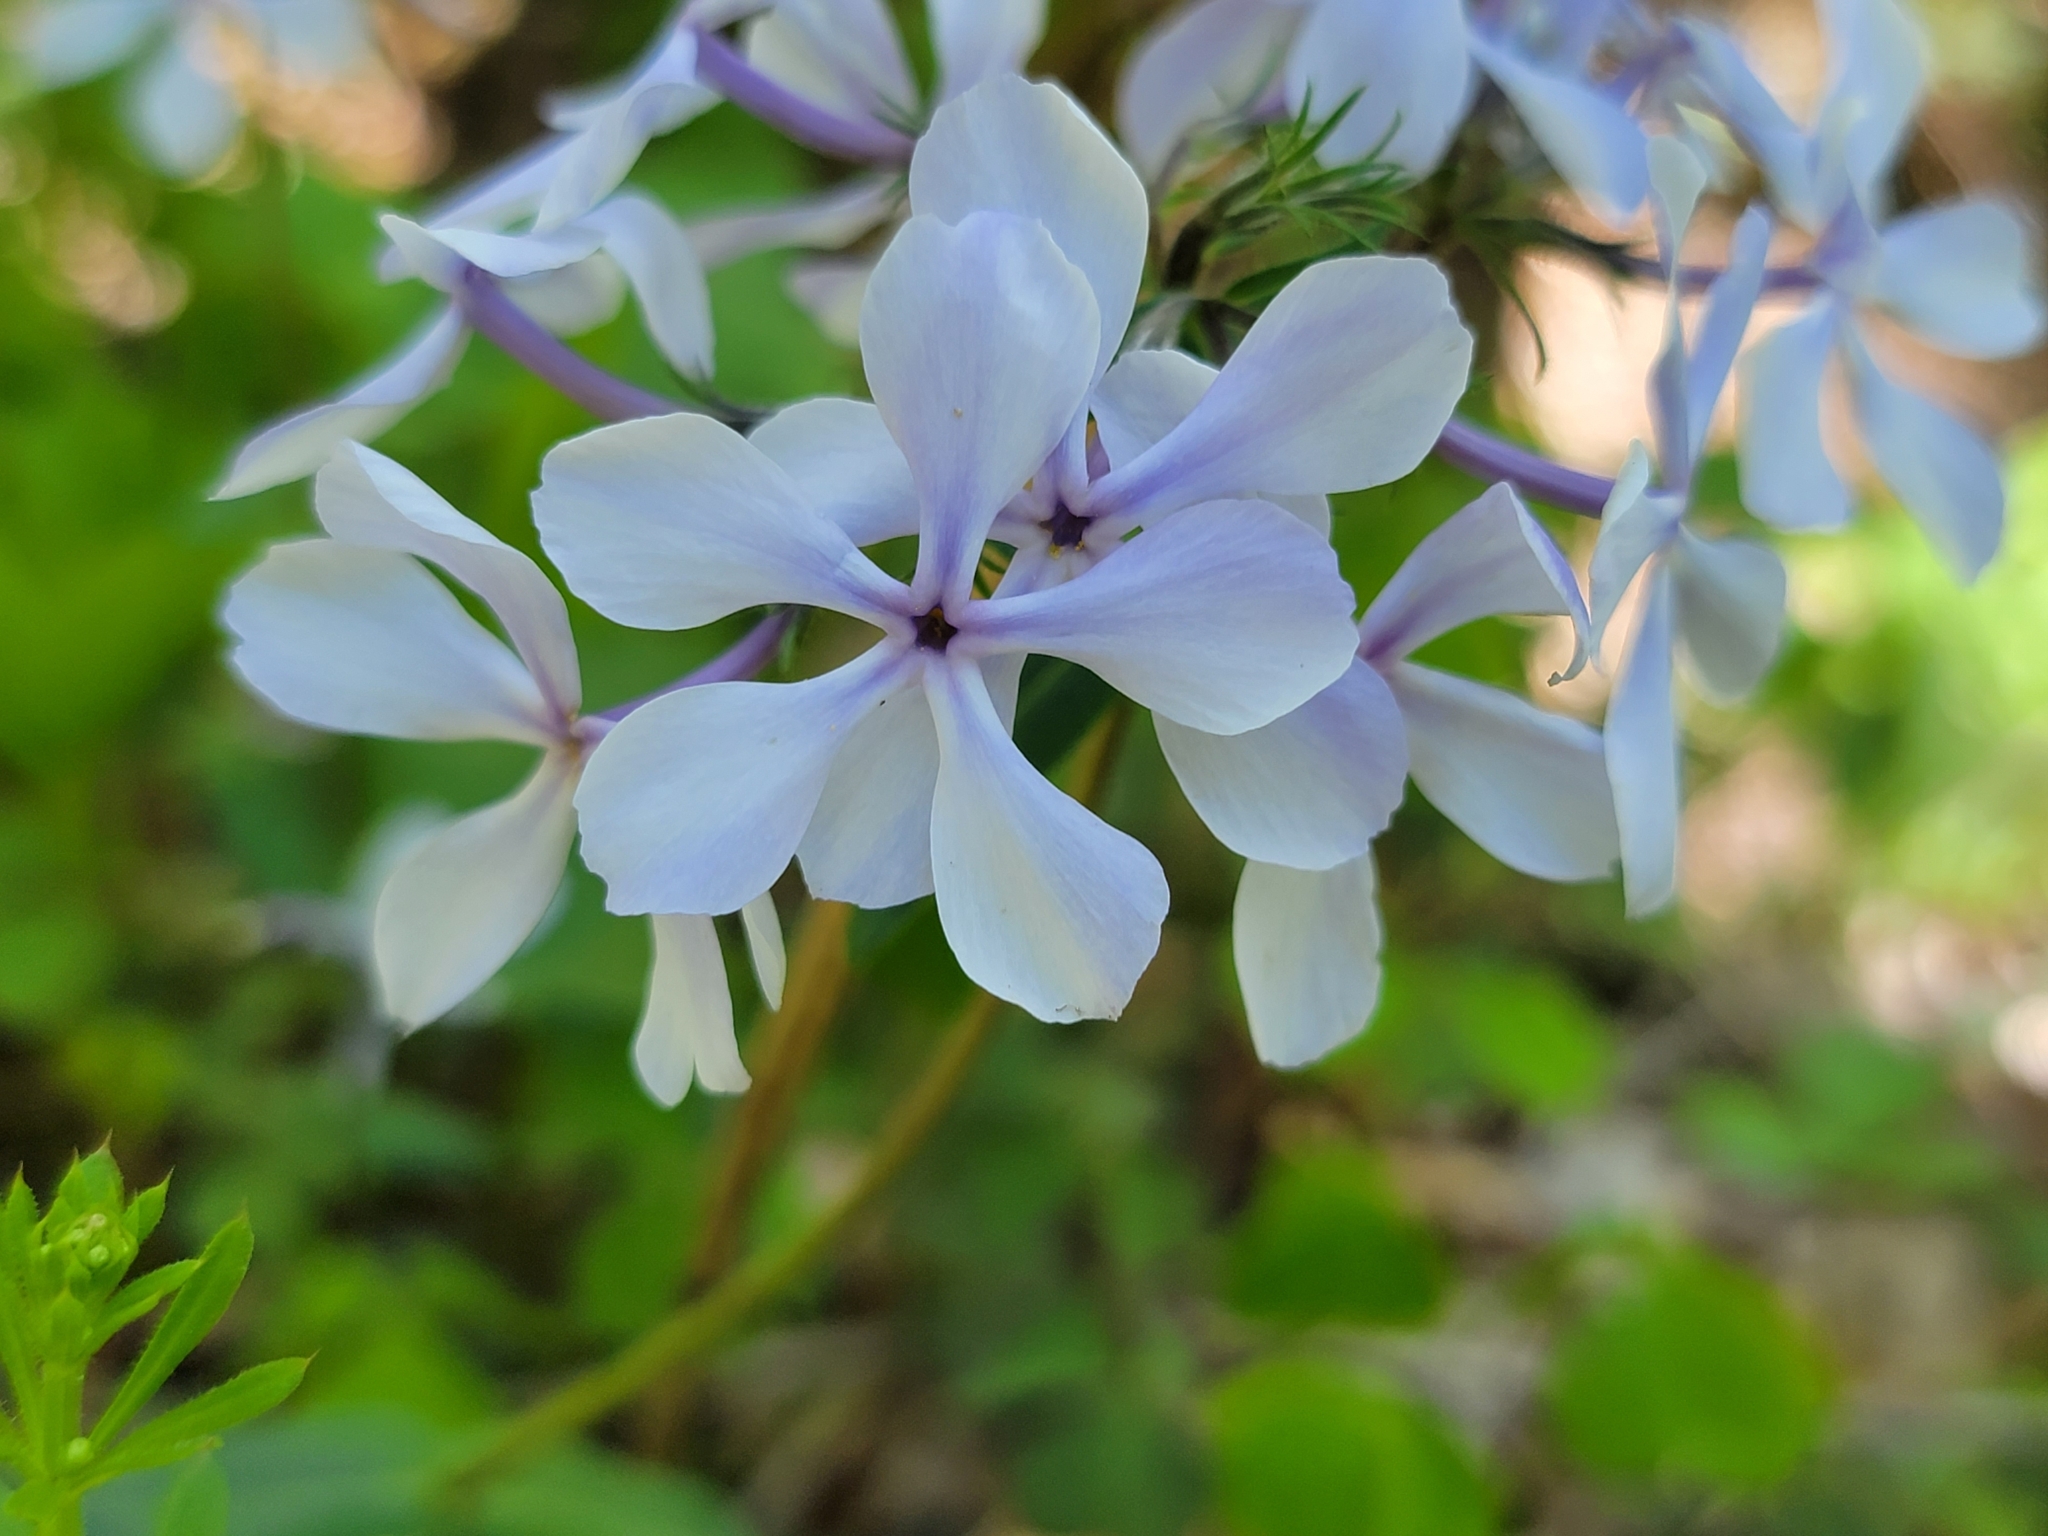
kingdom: Plantae
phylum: Tracheophyta
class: Magnoliopsida
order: Ericales
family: Polemoniaceae
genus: Phlox
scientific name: Phlox divaricata
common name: Blue phlox
